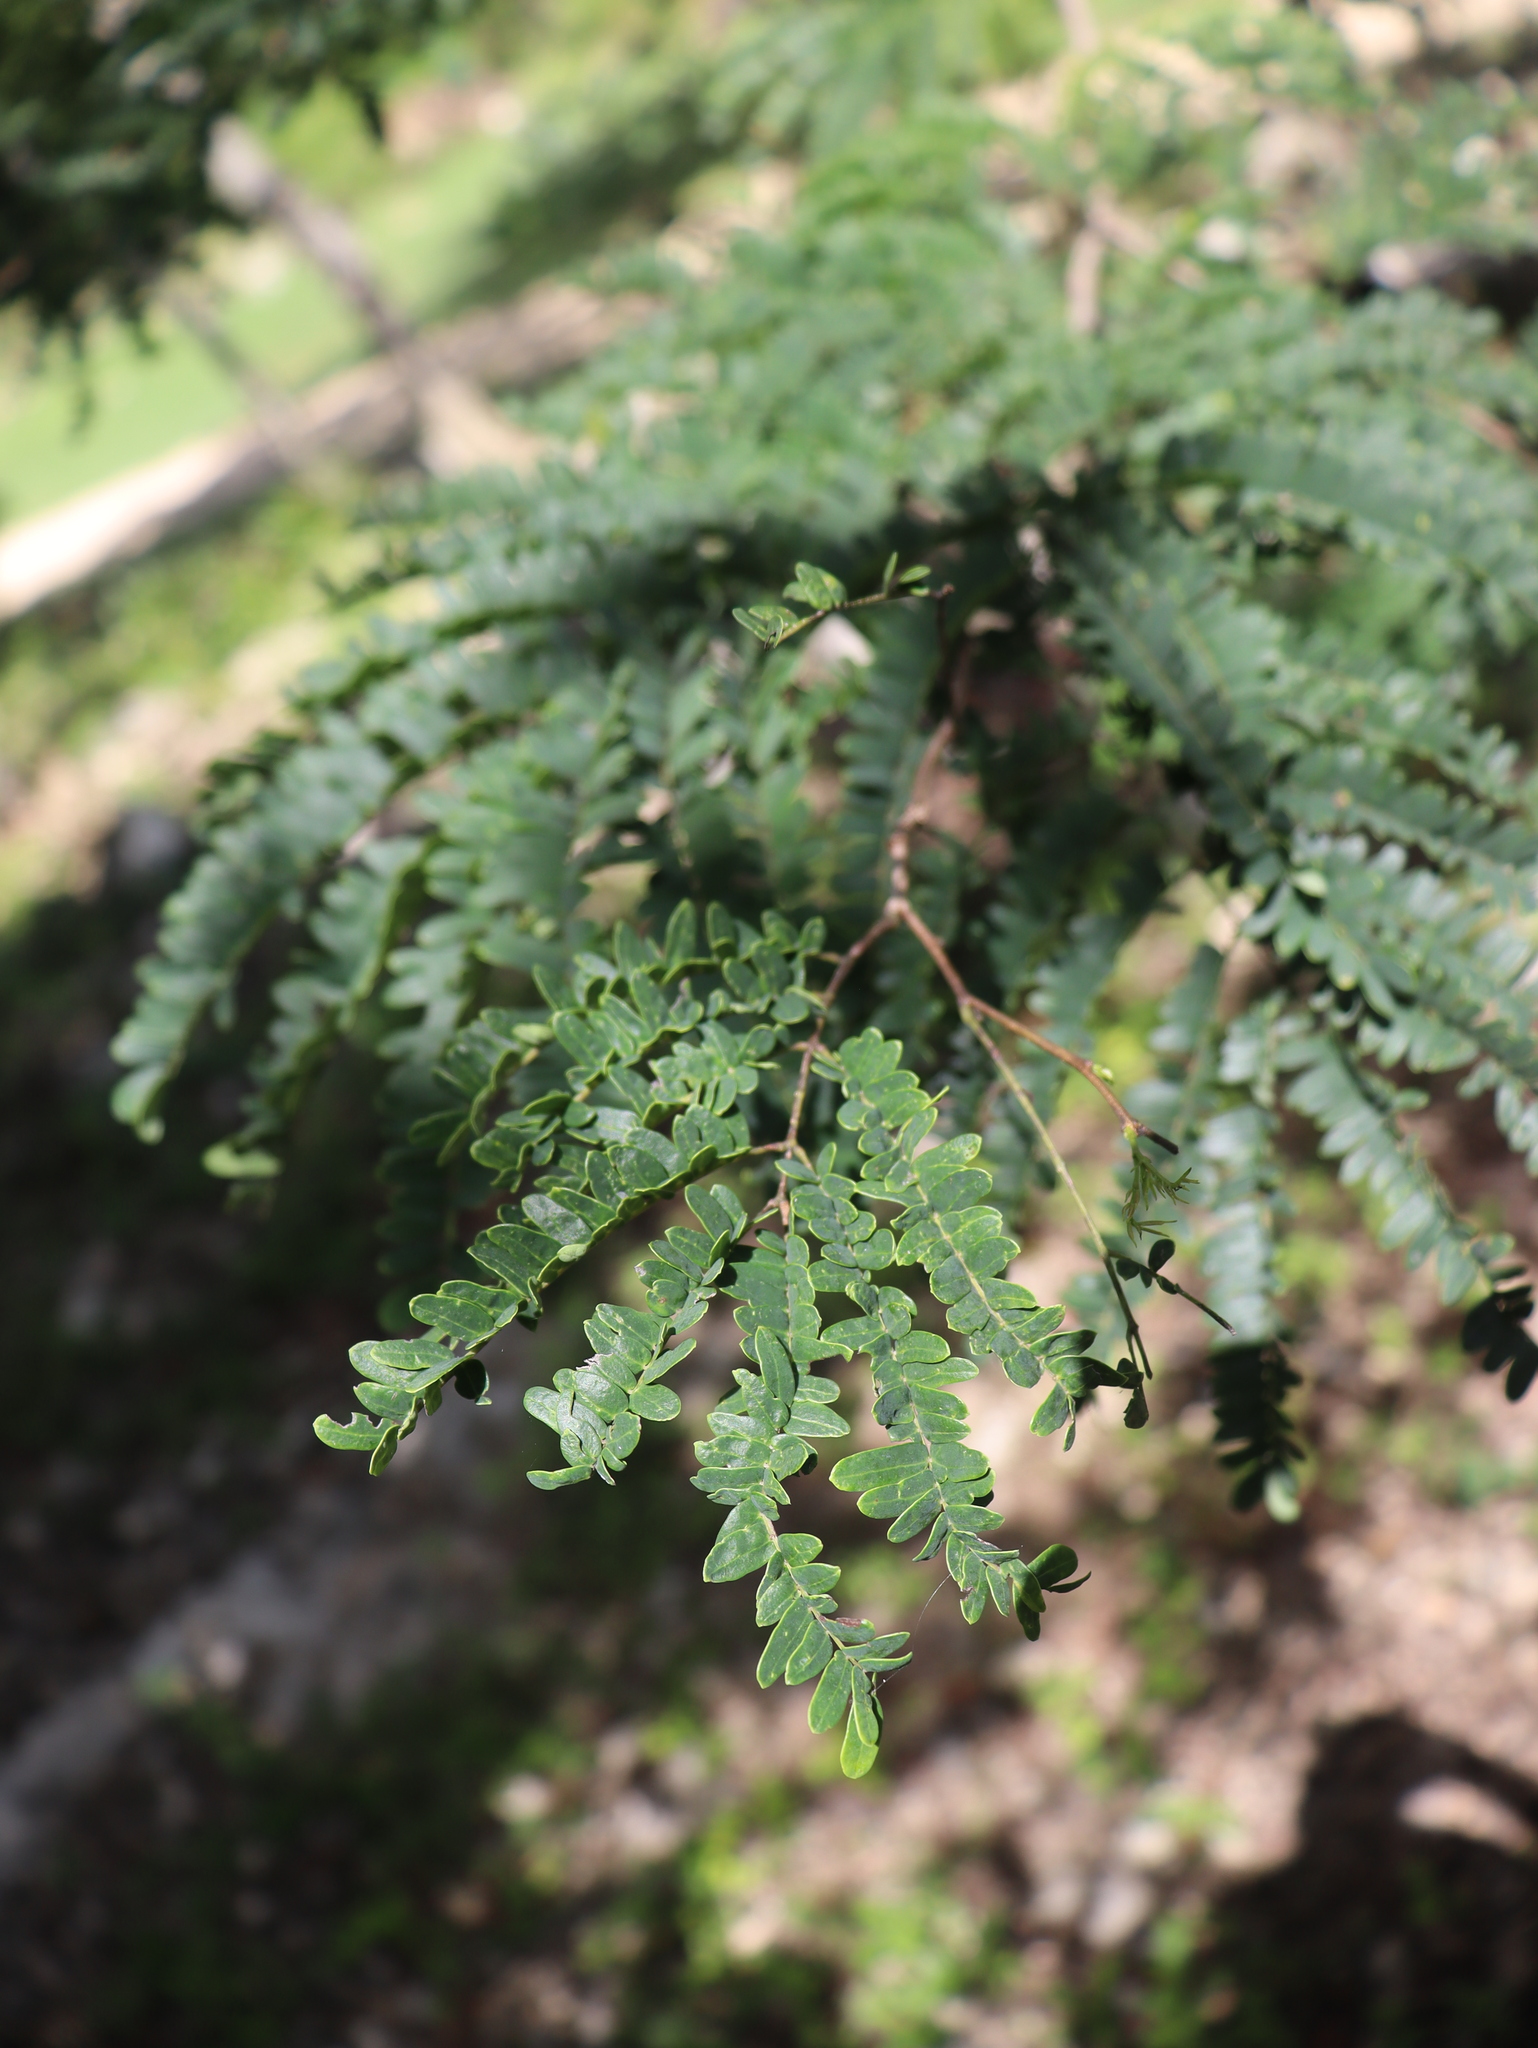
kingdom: Plantae
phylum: Tracheophyta
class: Magnoliopsida
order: Fabales
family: Fabaceae
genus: Lysiloma
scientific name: Lysiloma latisiliquum
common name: Wild tamarind
